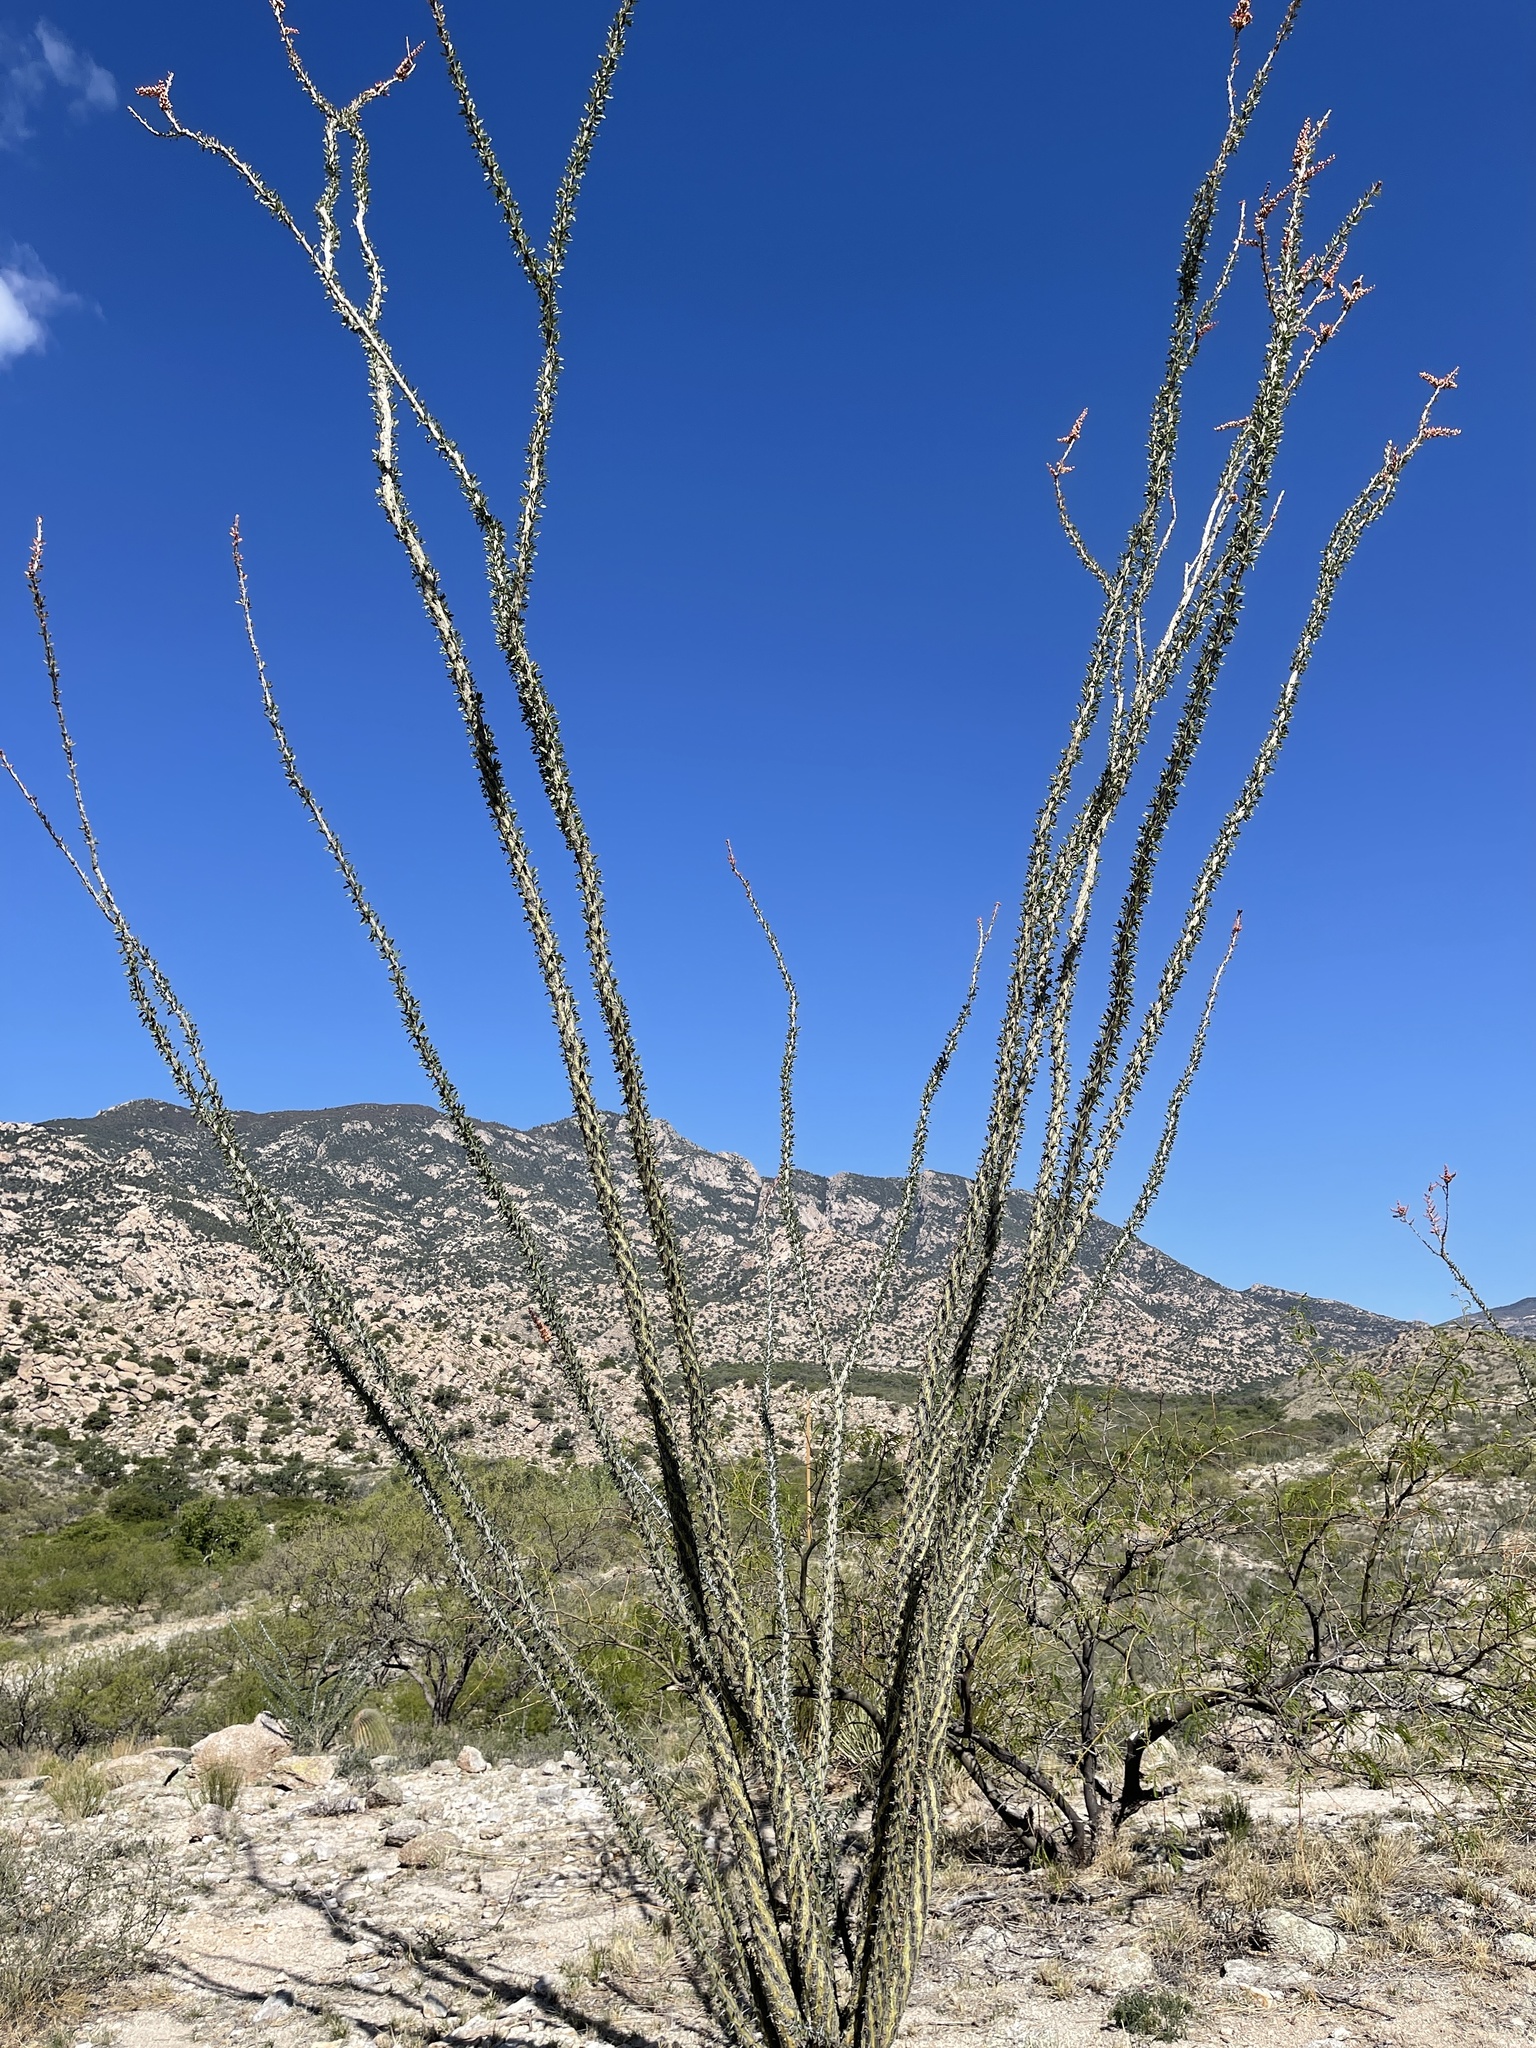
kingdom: Plantae
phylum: Tracheophyta
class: Magnoliopsida
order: Ericales
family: Fouquieriaceae
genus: Fouquieria
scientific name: Fouquieria splendens
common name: Vine-cactus
